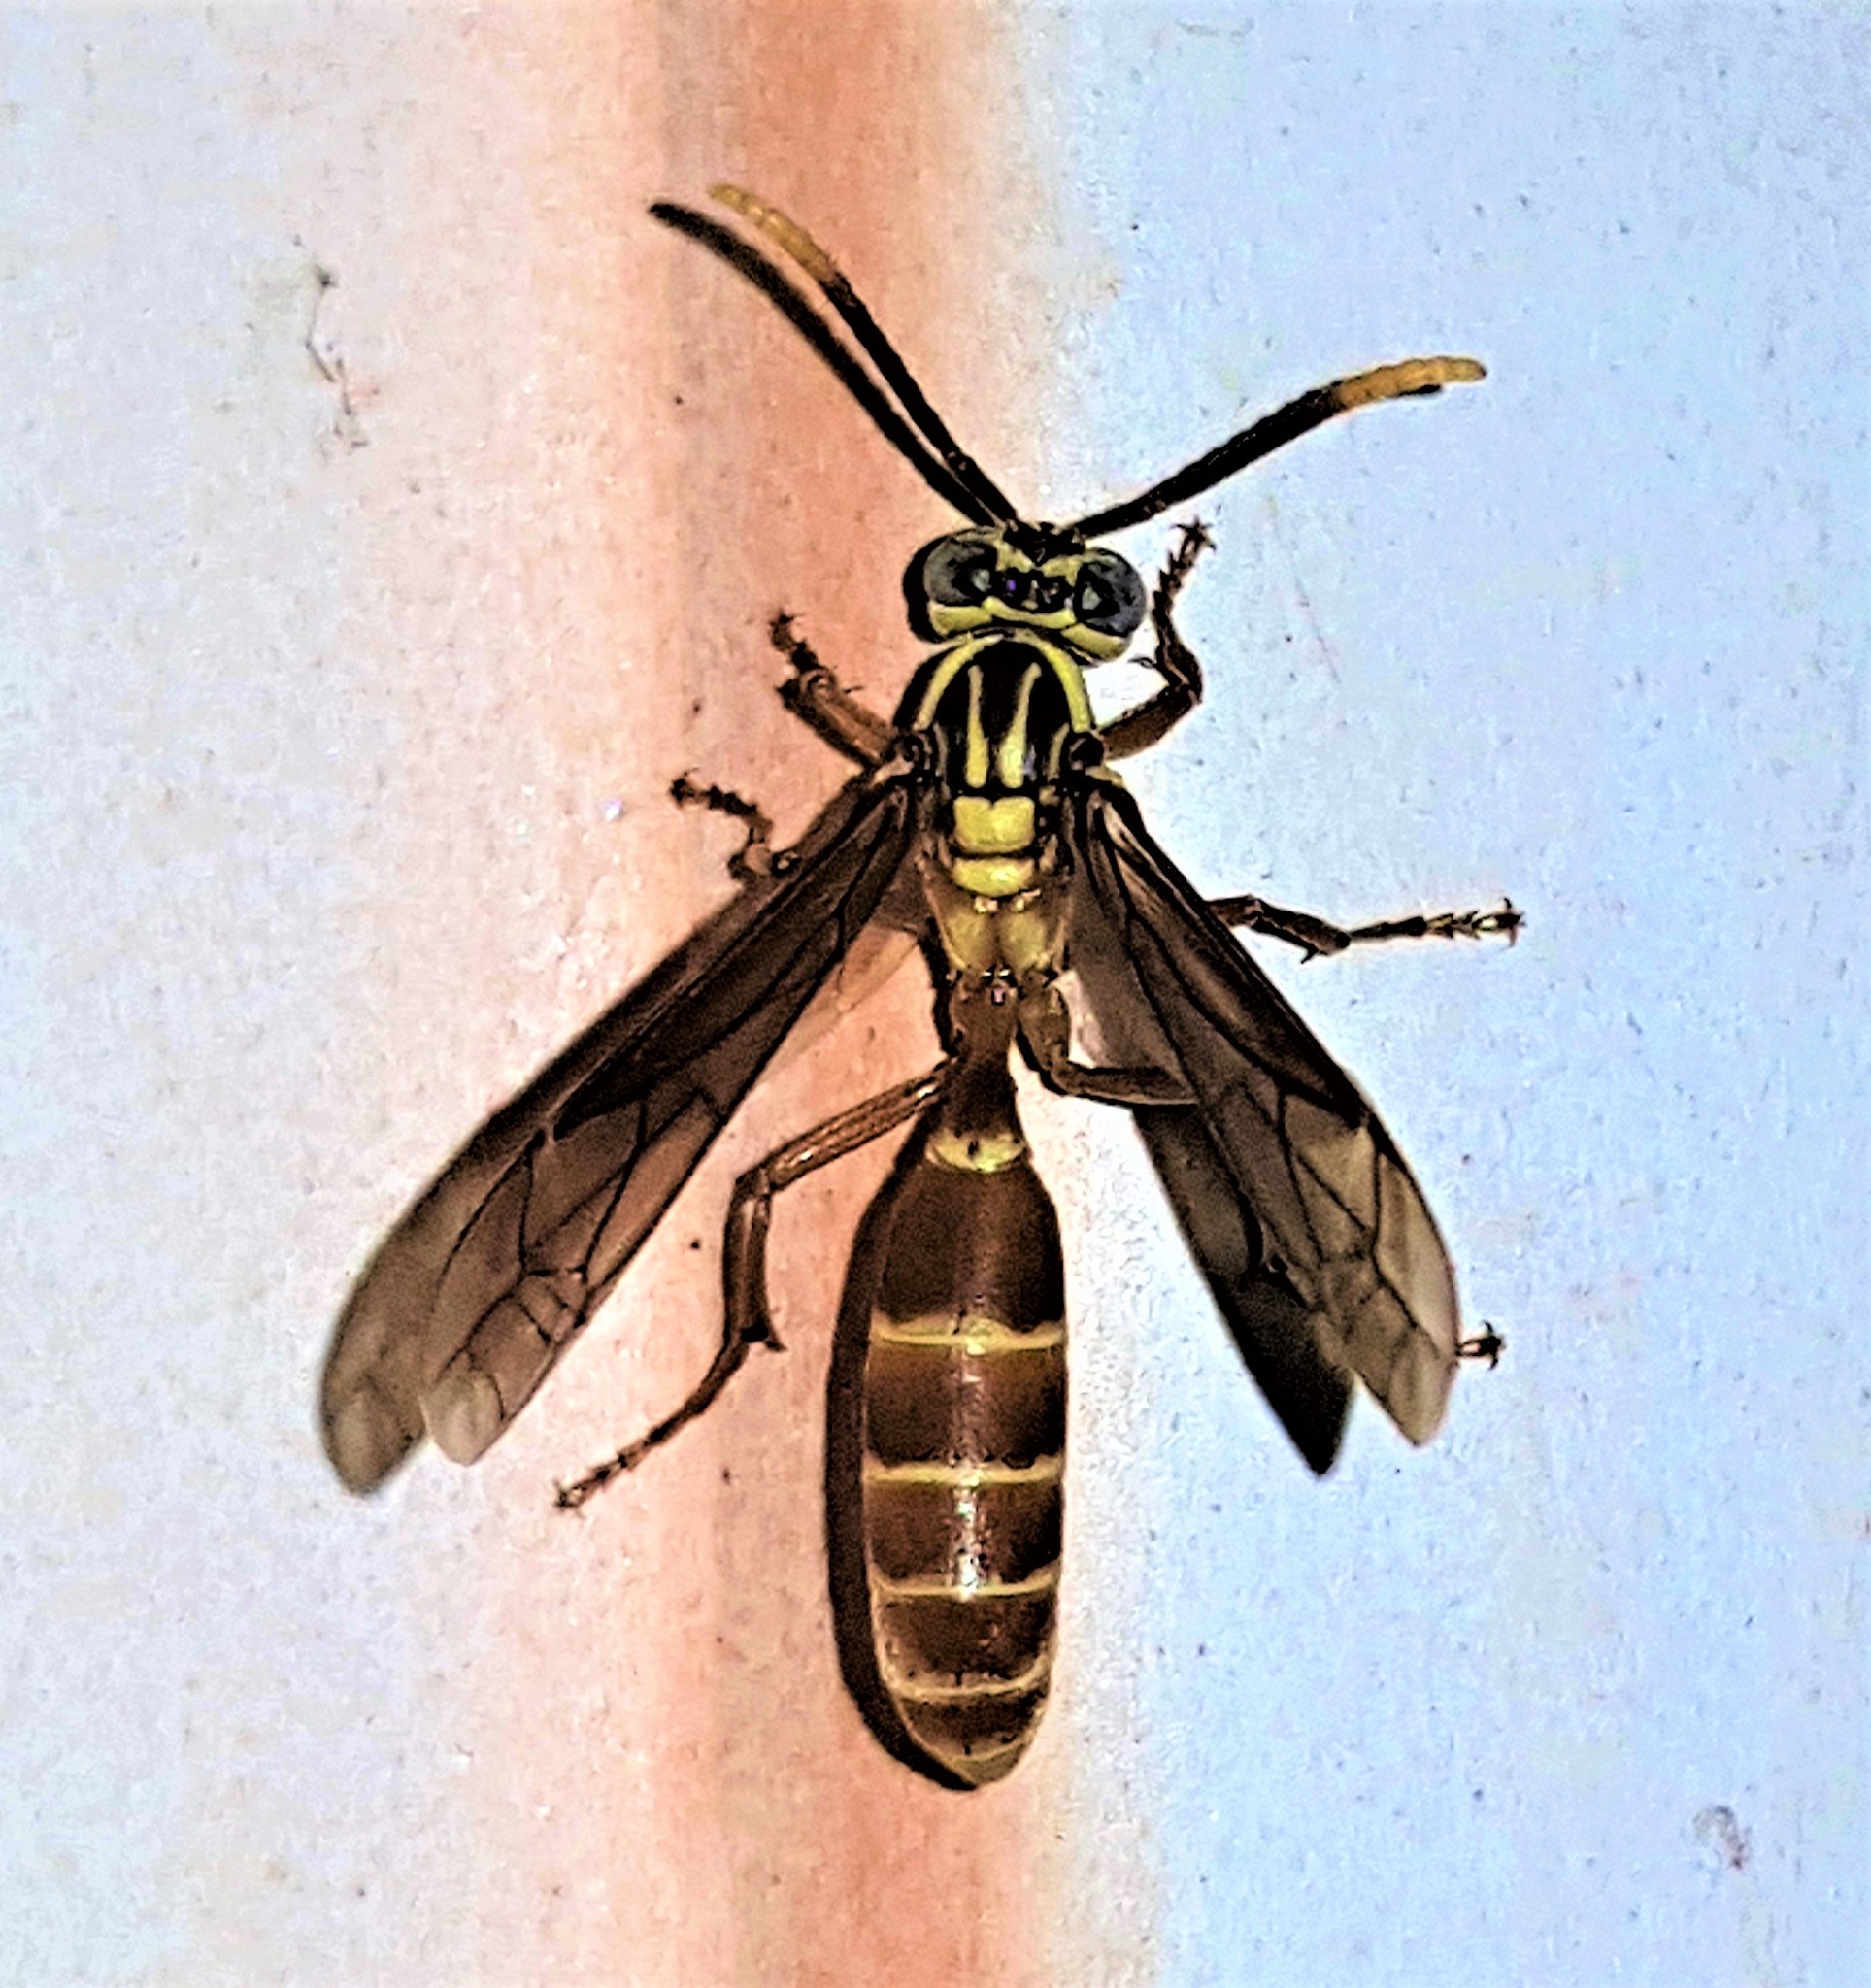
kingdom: Animalia
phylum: Arthropoda
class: Insecta
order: Hymenoptera
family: Vespidae
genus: Apoica
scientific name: Apoica strigata
